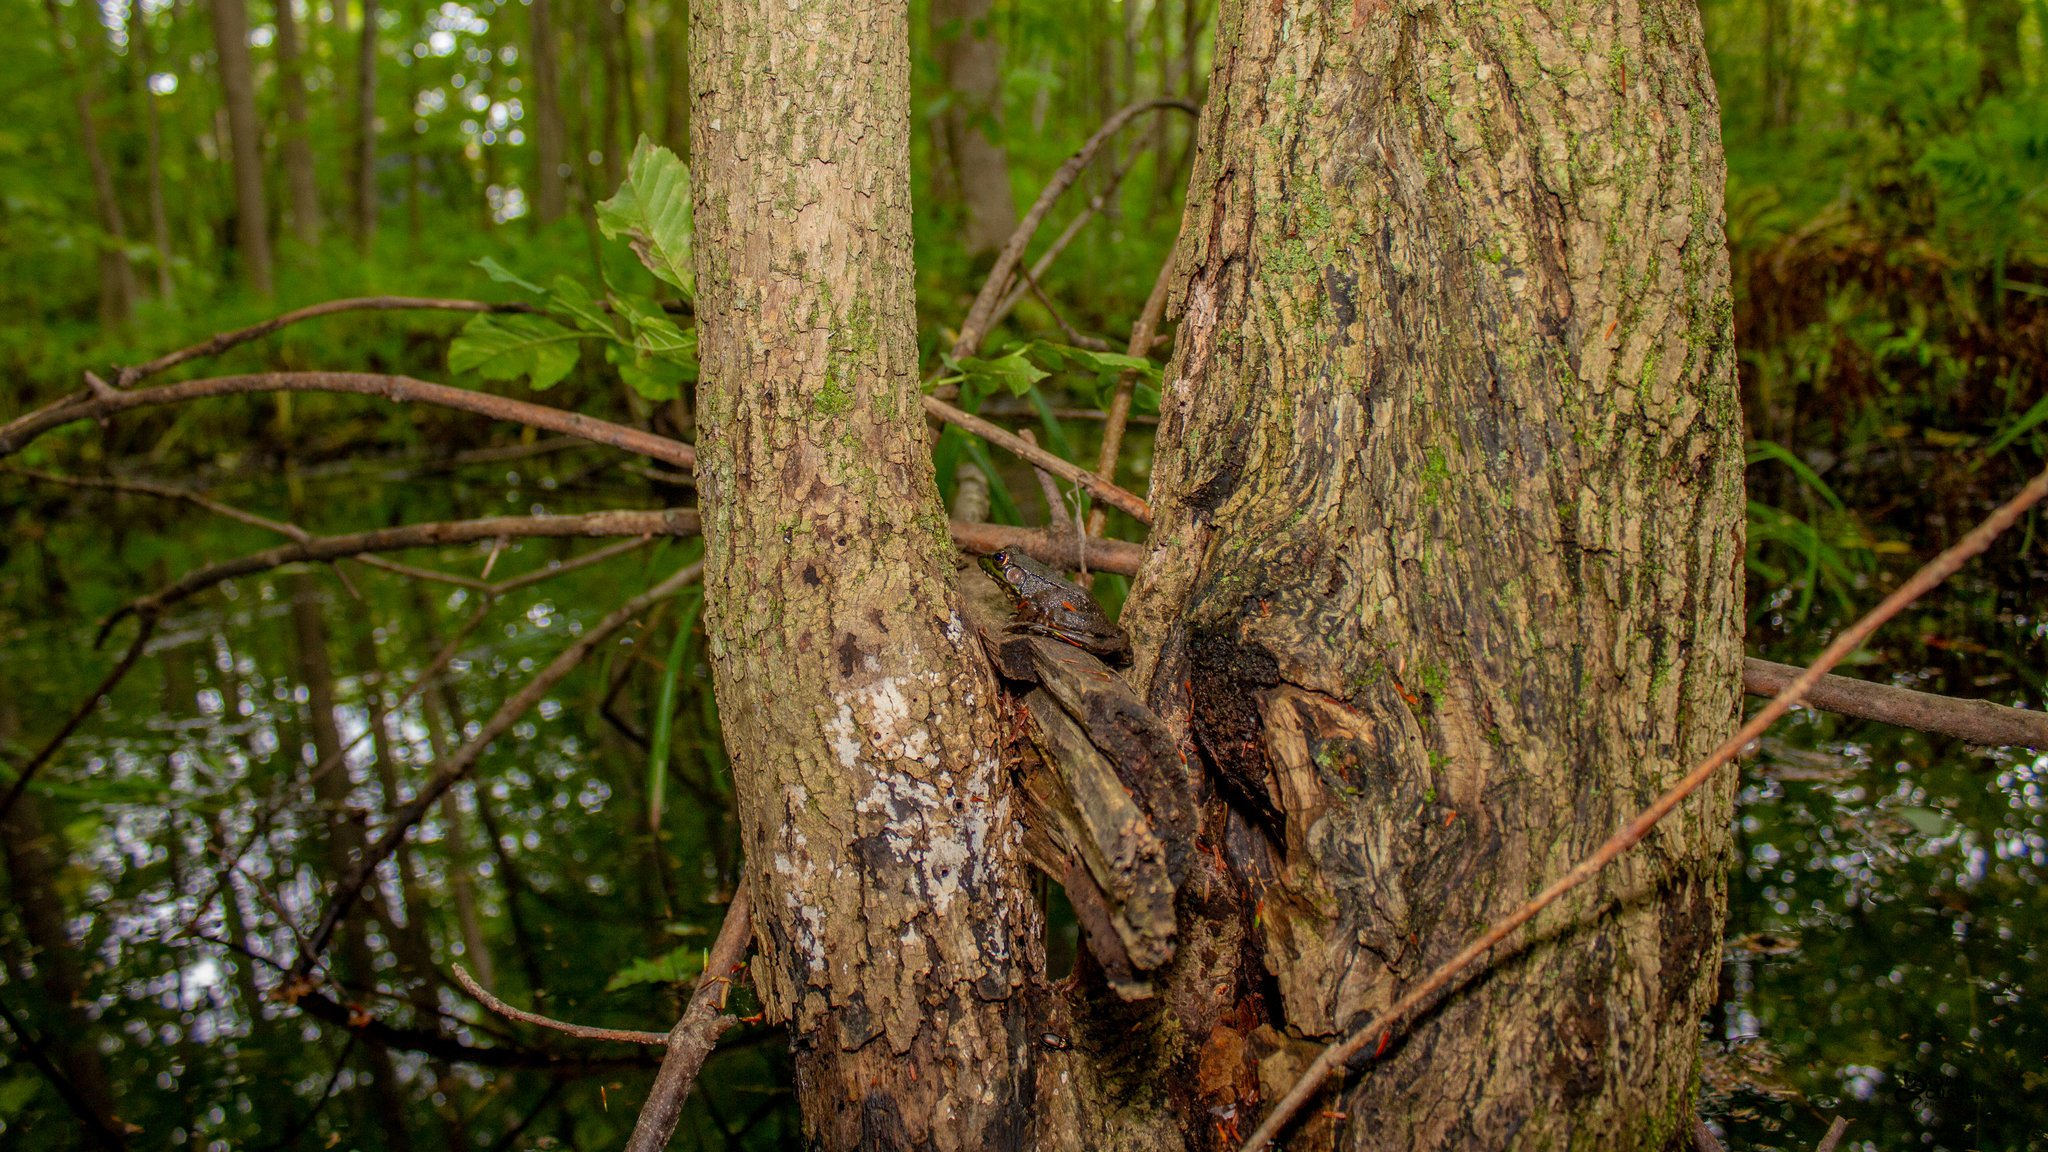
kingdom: Animalia
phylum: Chordata
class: Amphibia
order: Anura
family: Ranidae
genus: Lithobates
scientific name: Lithobates clamitans
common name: Green frog
